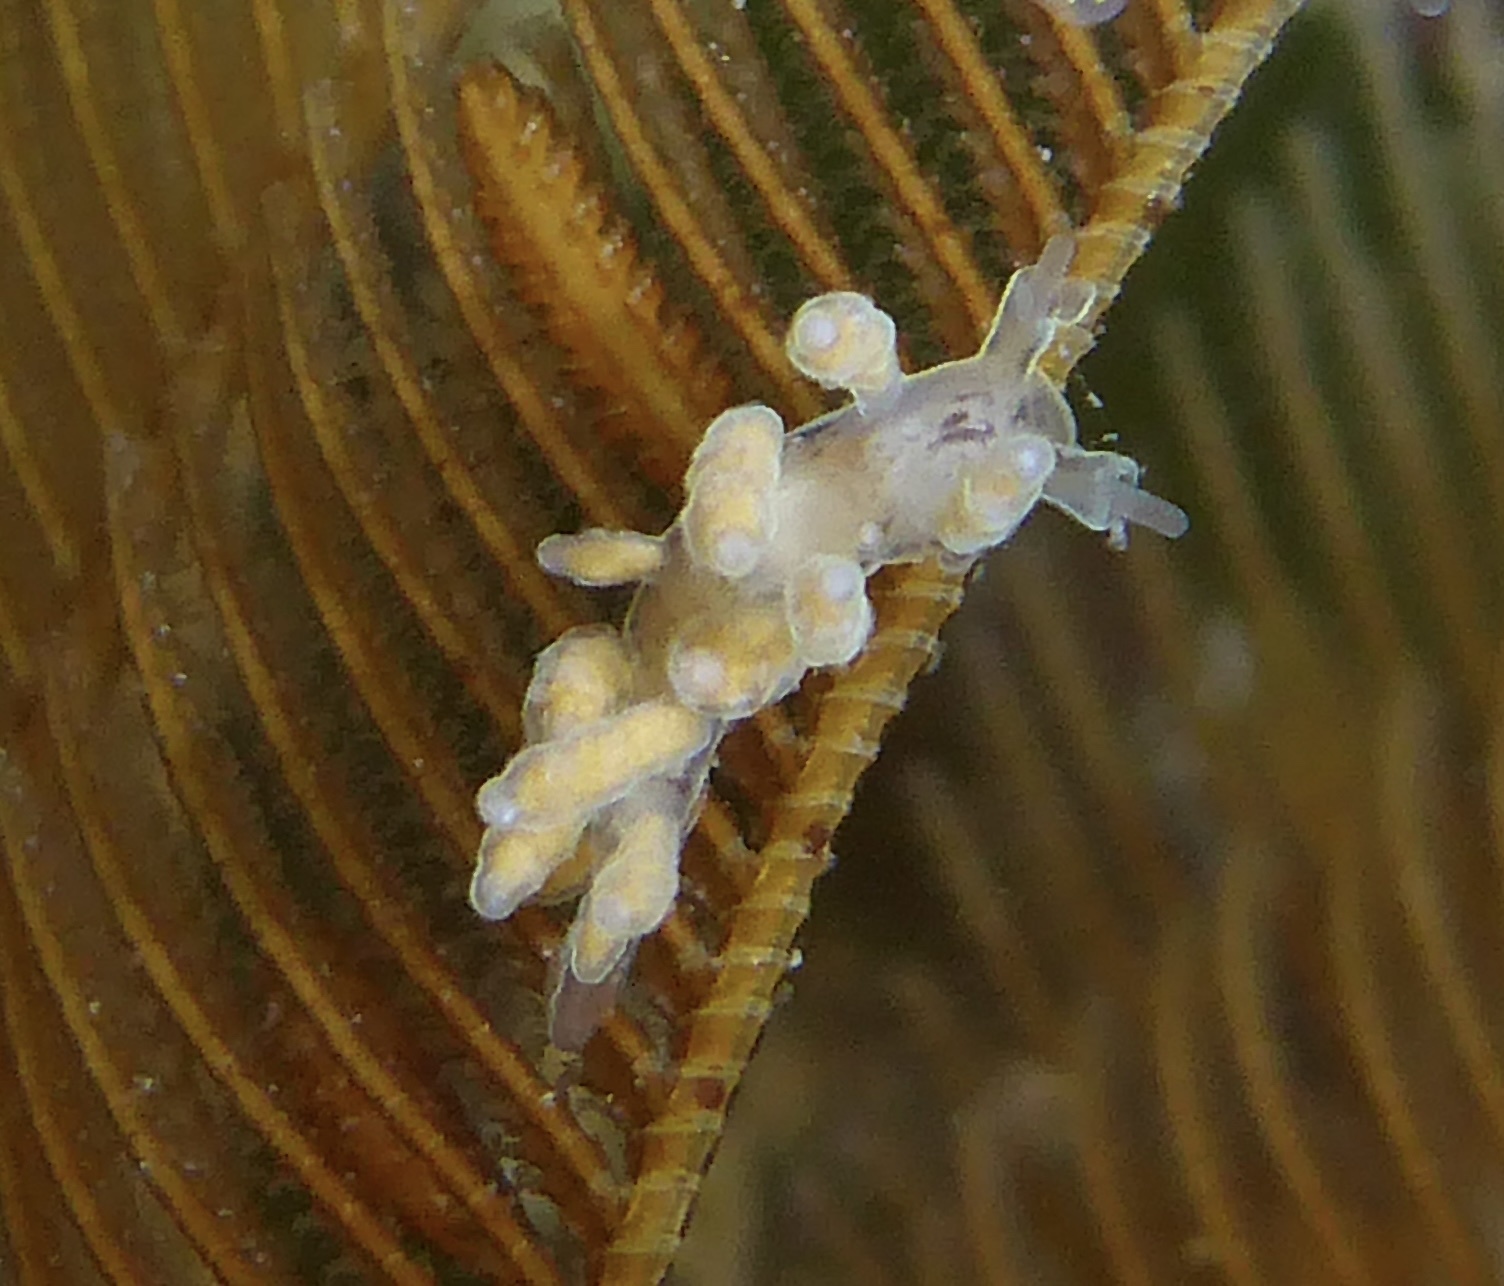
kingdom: Animalia
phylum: Mollusca
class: Gastropoda
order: Nudibranchia
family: Dotidae
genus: Doto
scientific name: Doto columbiana
